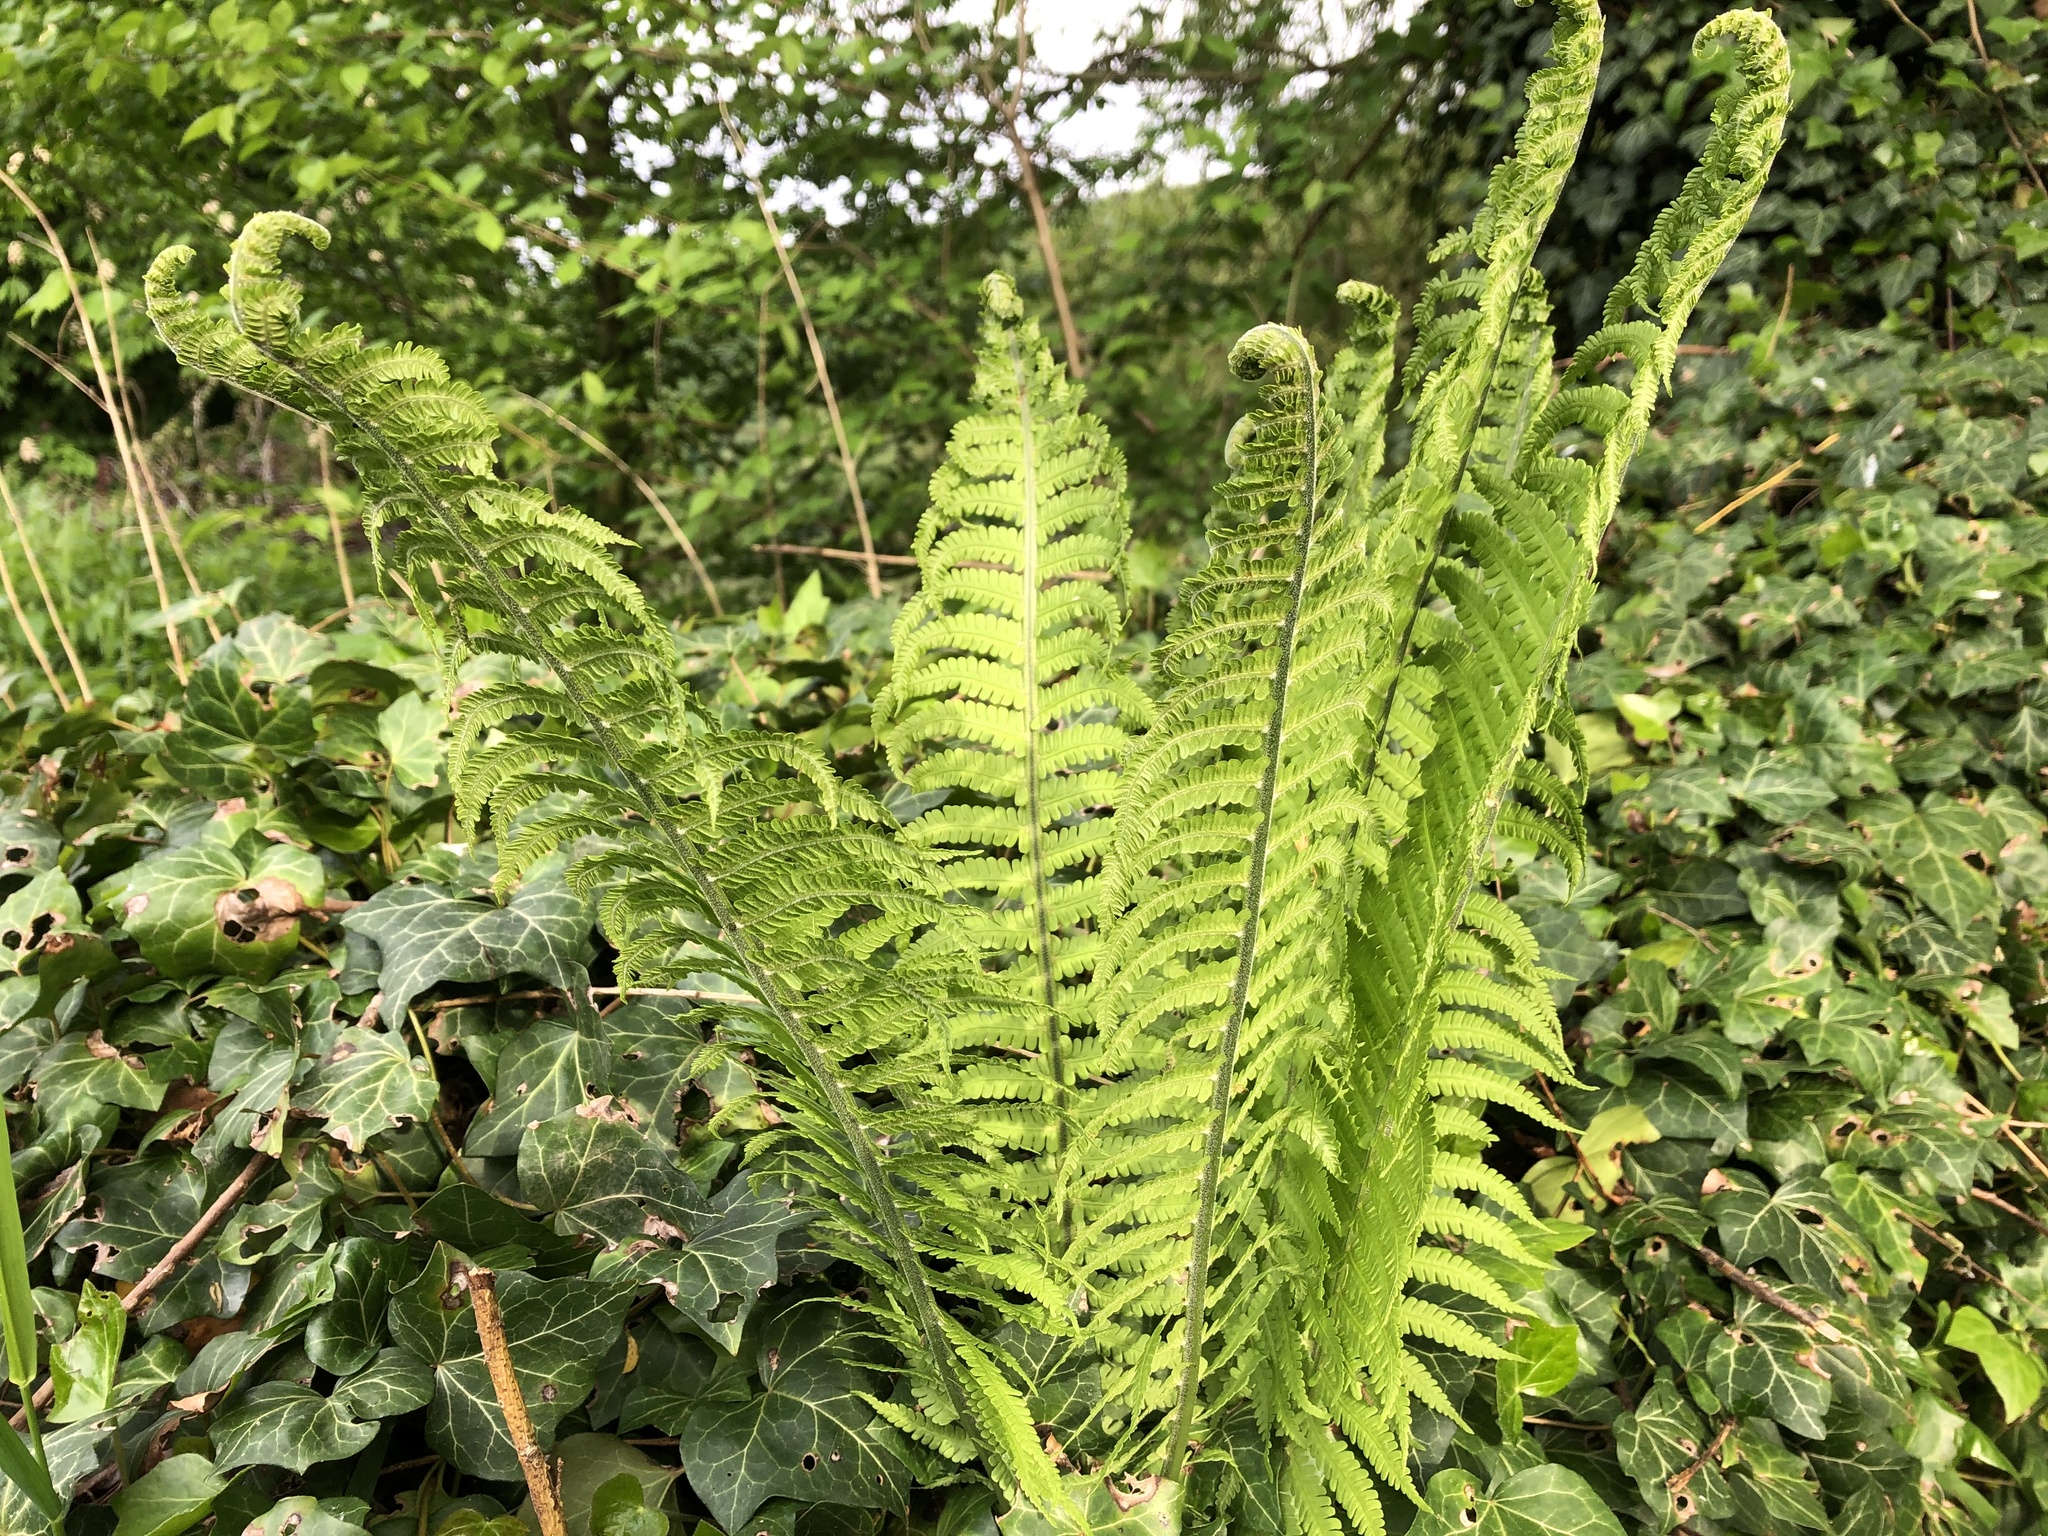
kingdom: Plantae
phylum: Tracheophyta
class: Polypodiopsida
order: Polypodiales
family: Onocleaceae
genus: Matteuccia
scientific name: Matteuccia struthiopteris
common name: Ostrich fern
